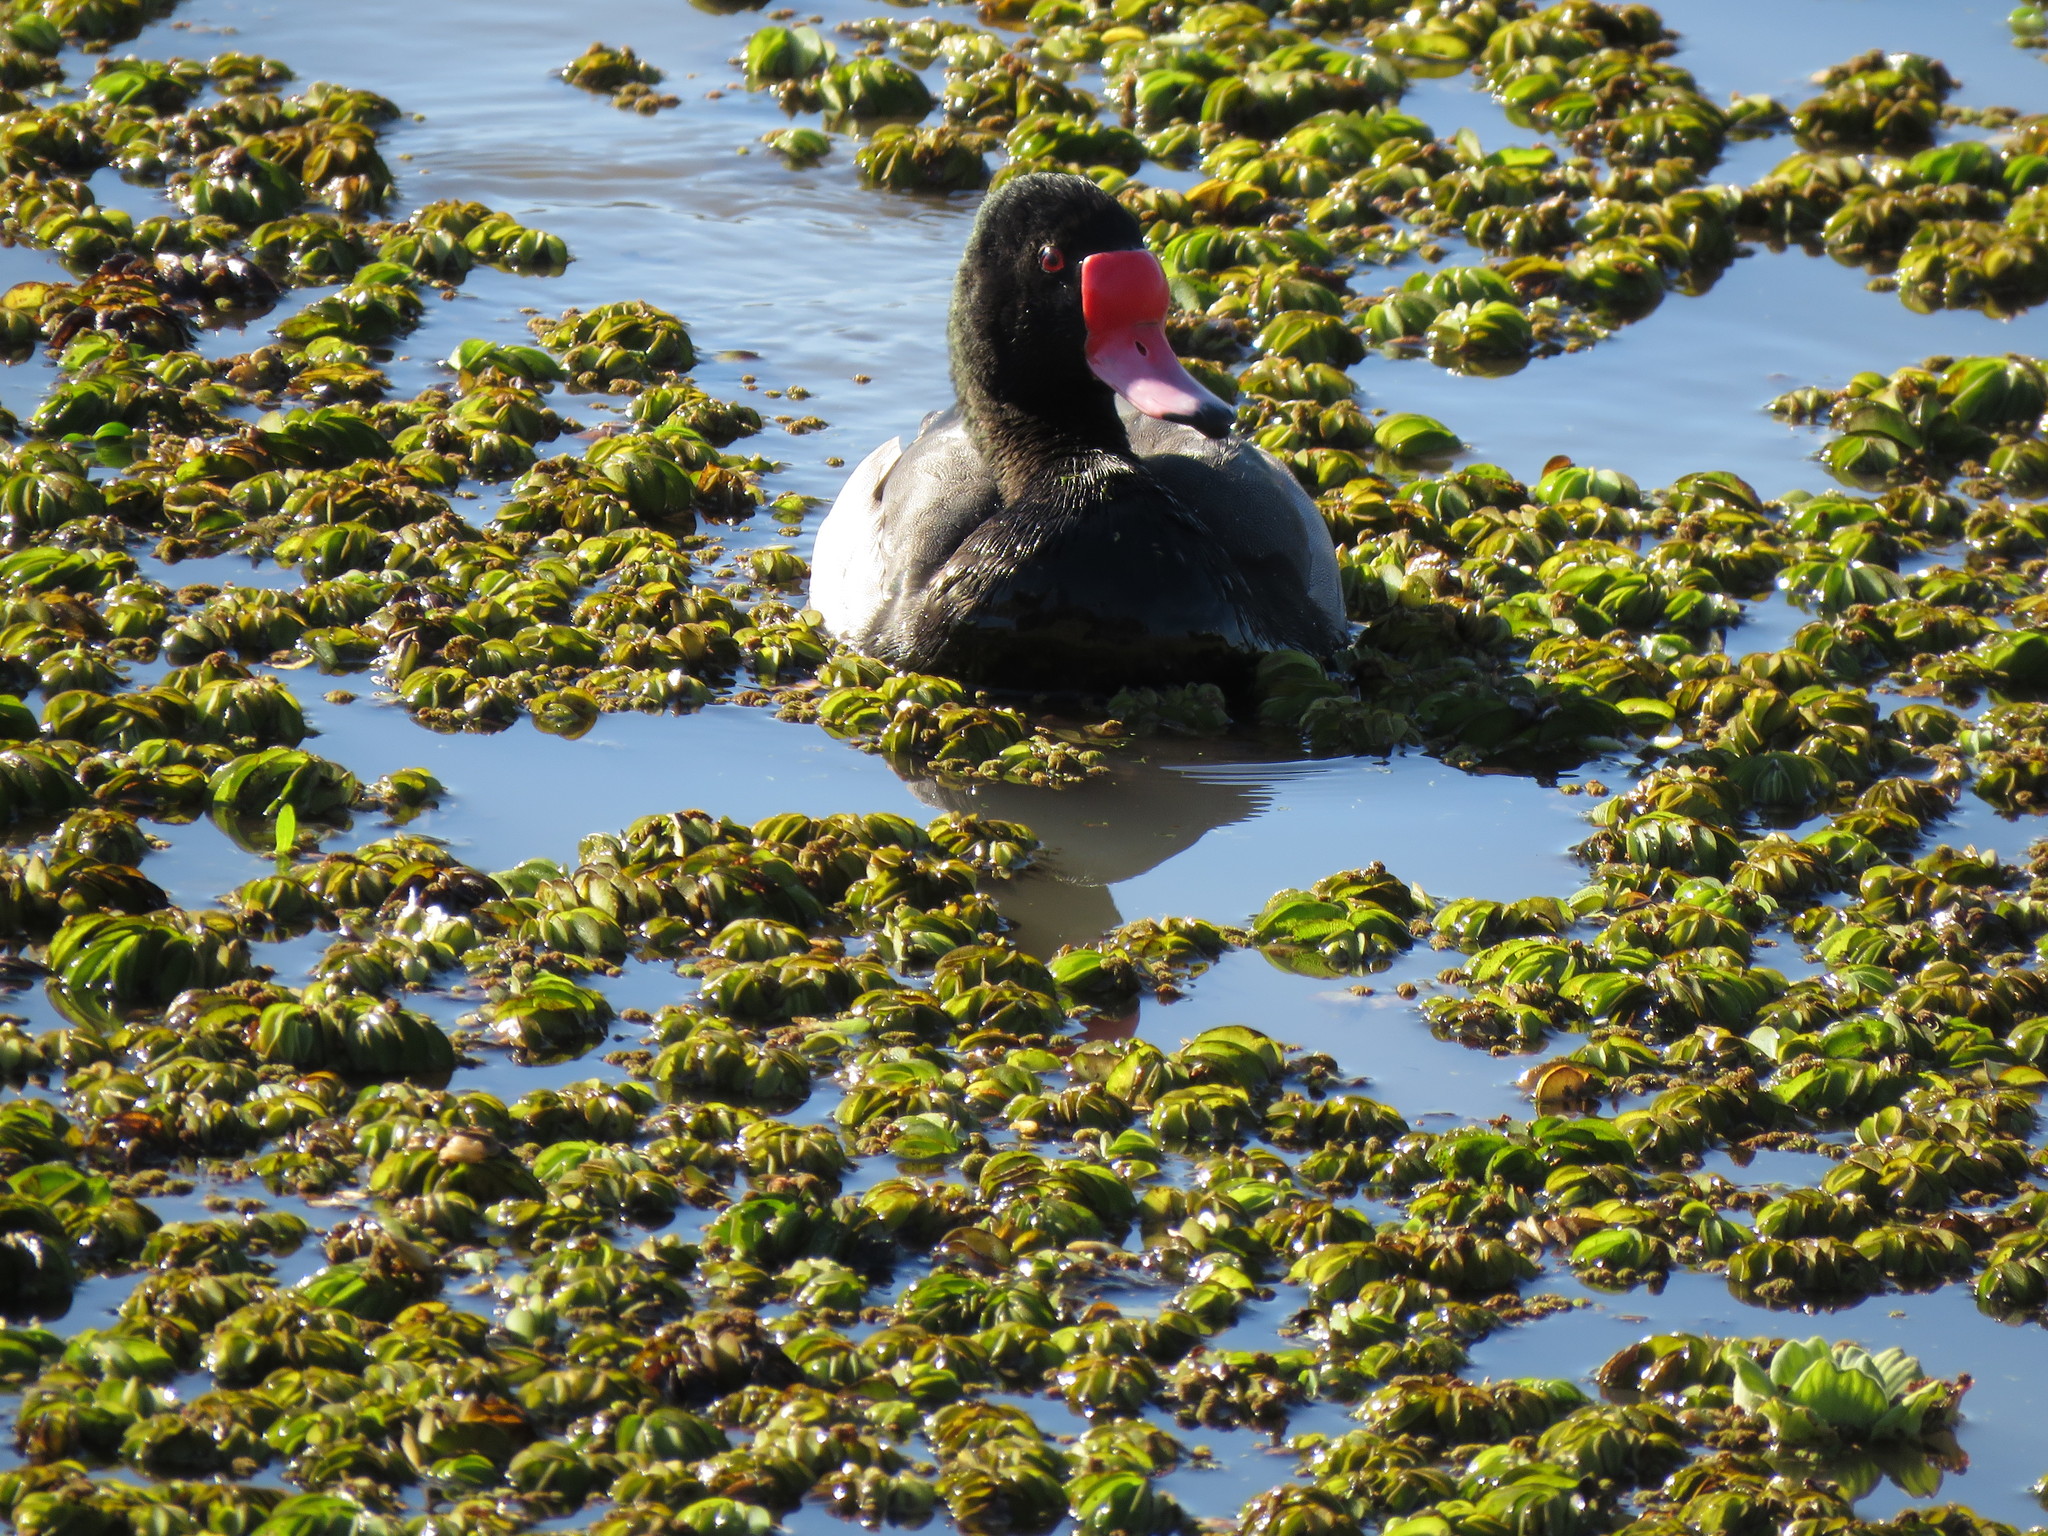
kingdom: Animalia
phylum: Chordata
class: Aves
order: Anseriformes
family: Anatidae
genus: Netta
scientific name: Netta peposaca
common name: Rosy-billed pochard
